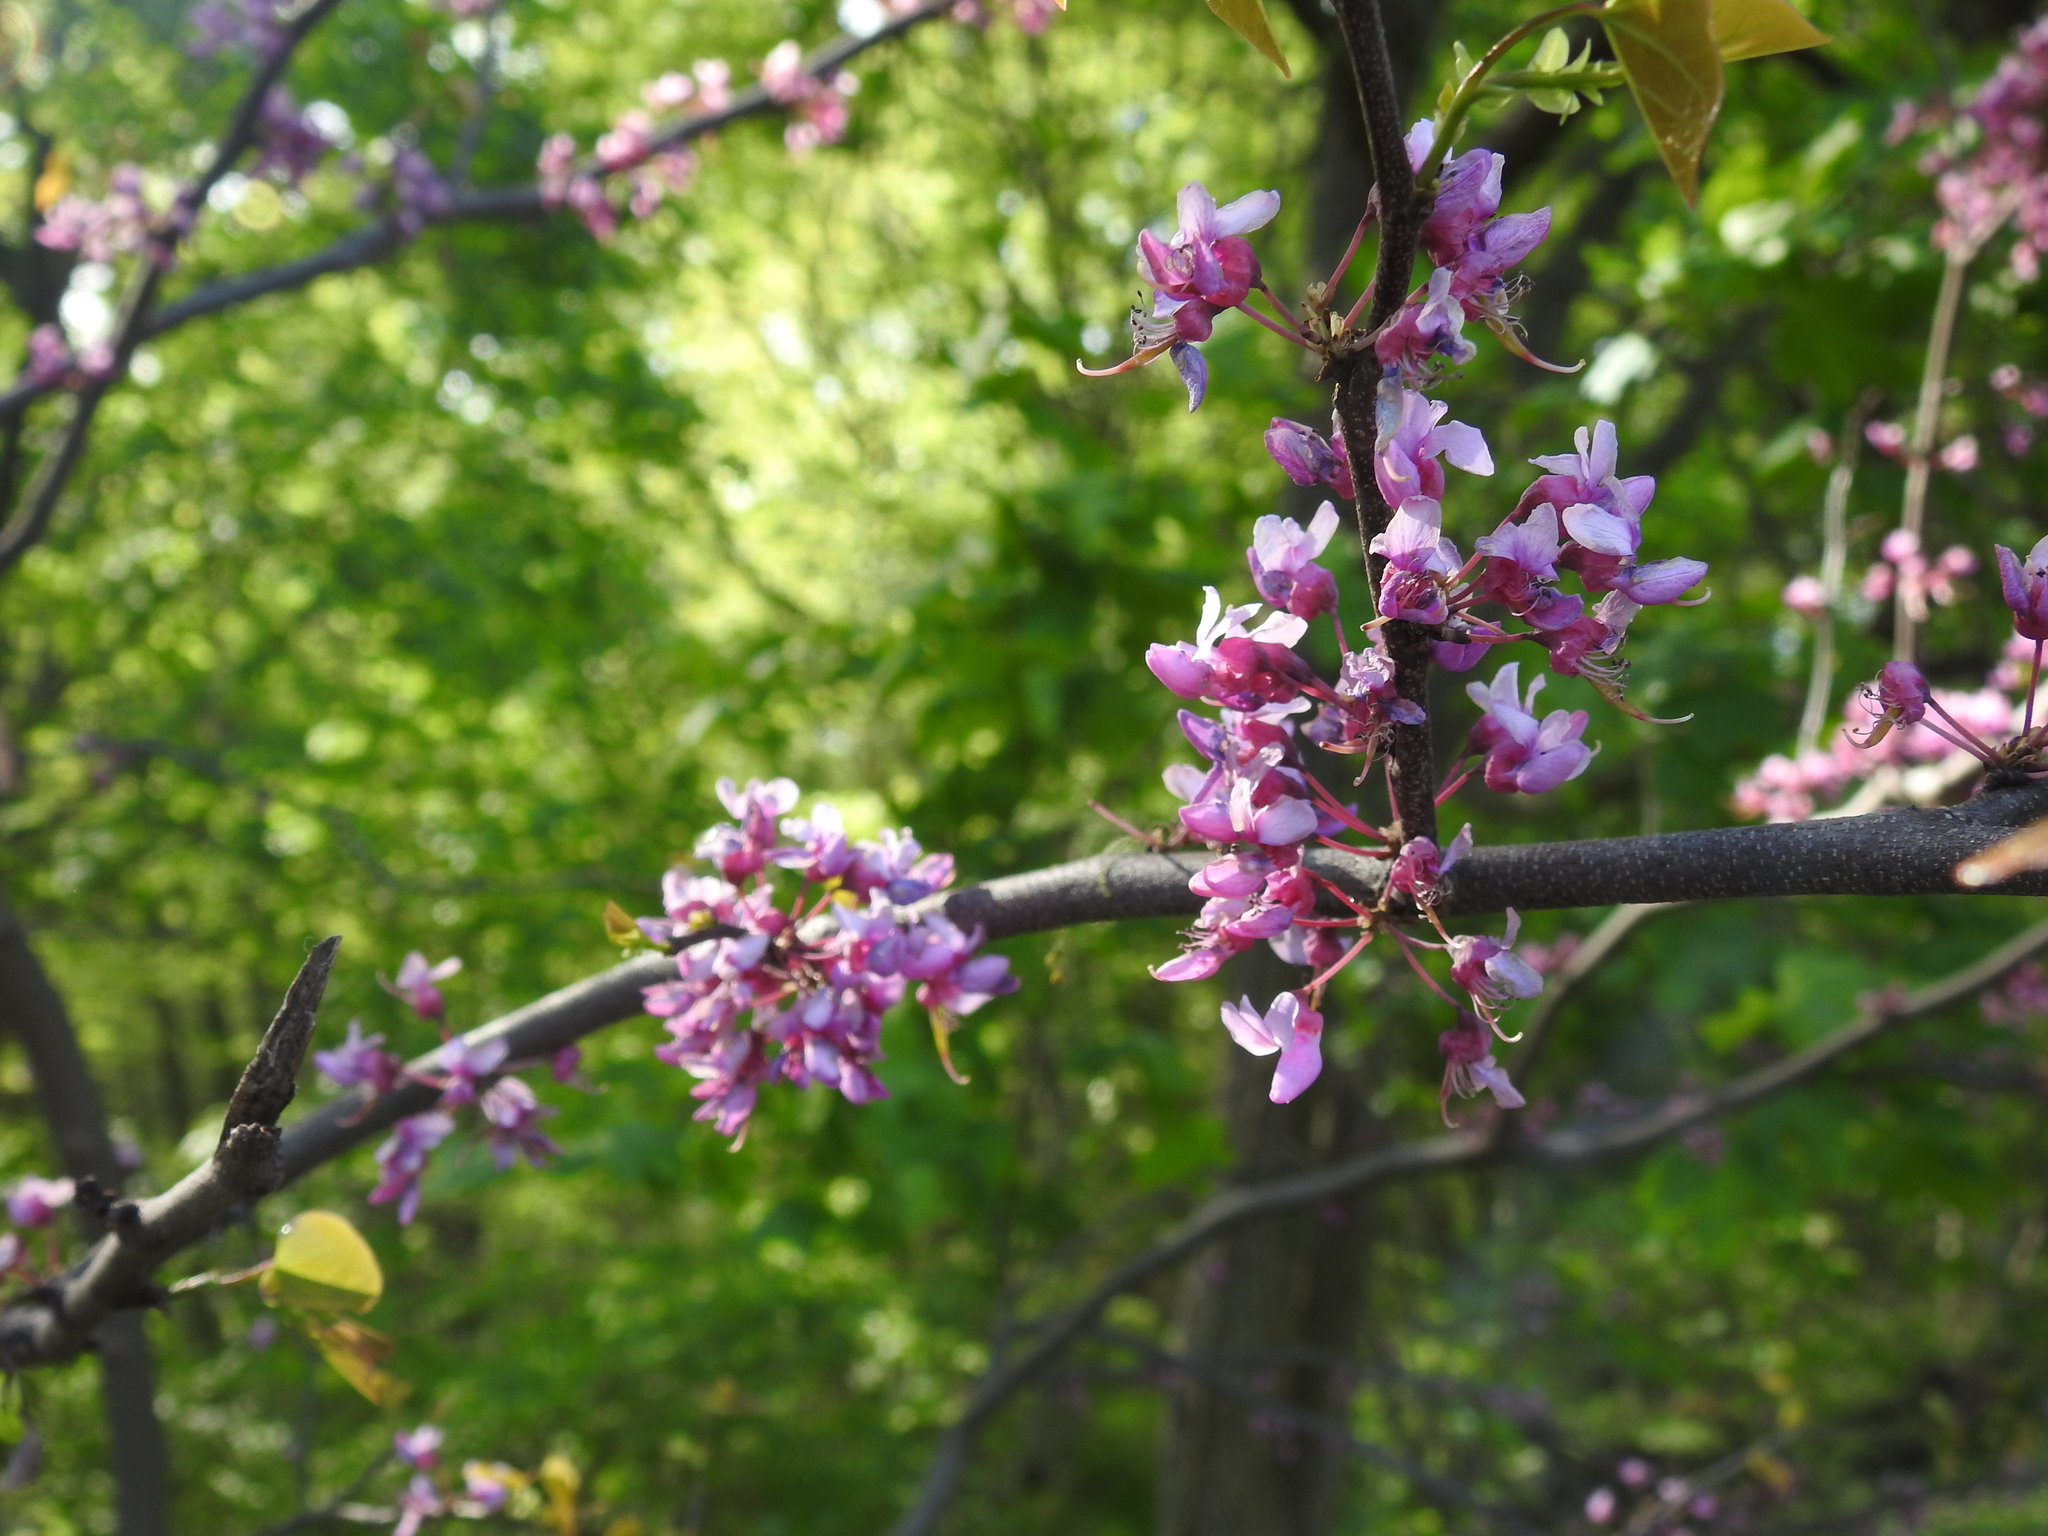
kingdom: Plantae
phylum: Tracheophyta
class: Magnoliopsida
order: Fabales
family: Fabaceae
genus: Cercis
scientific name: Cercis canadensis
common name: Eastern redbud
